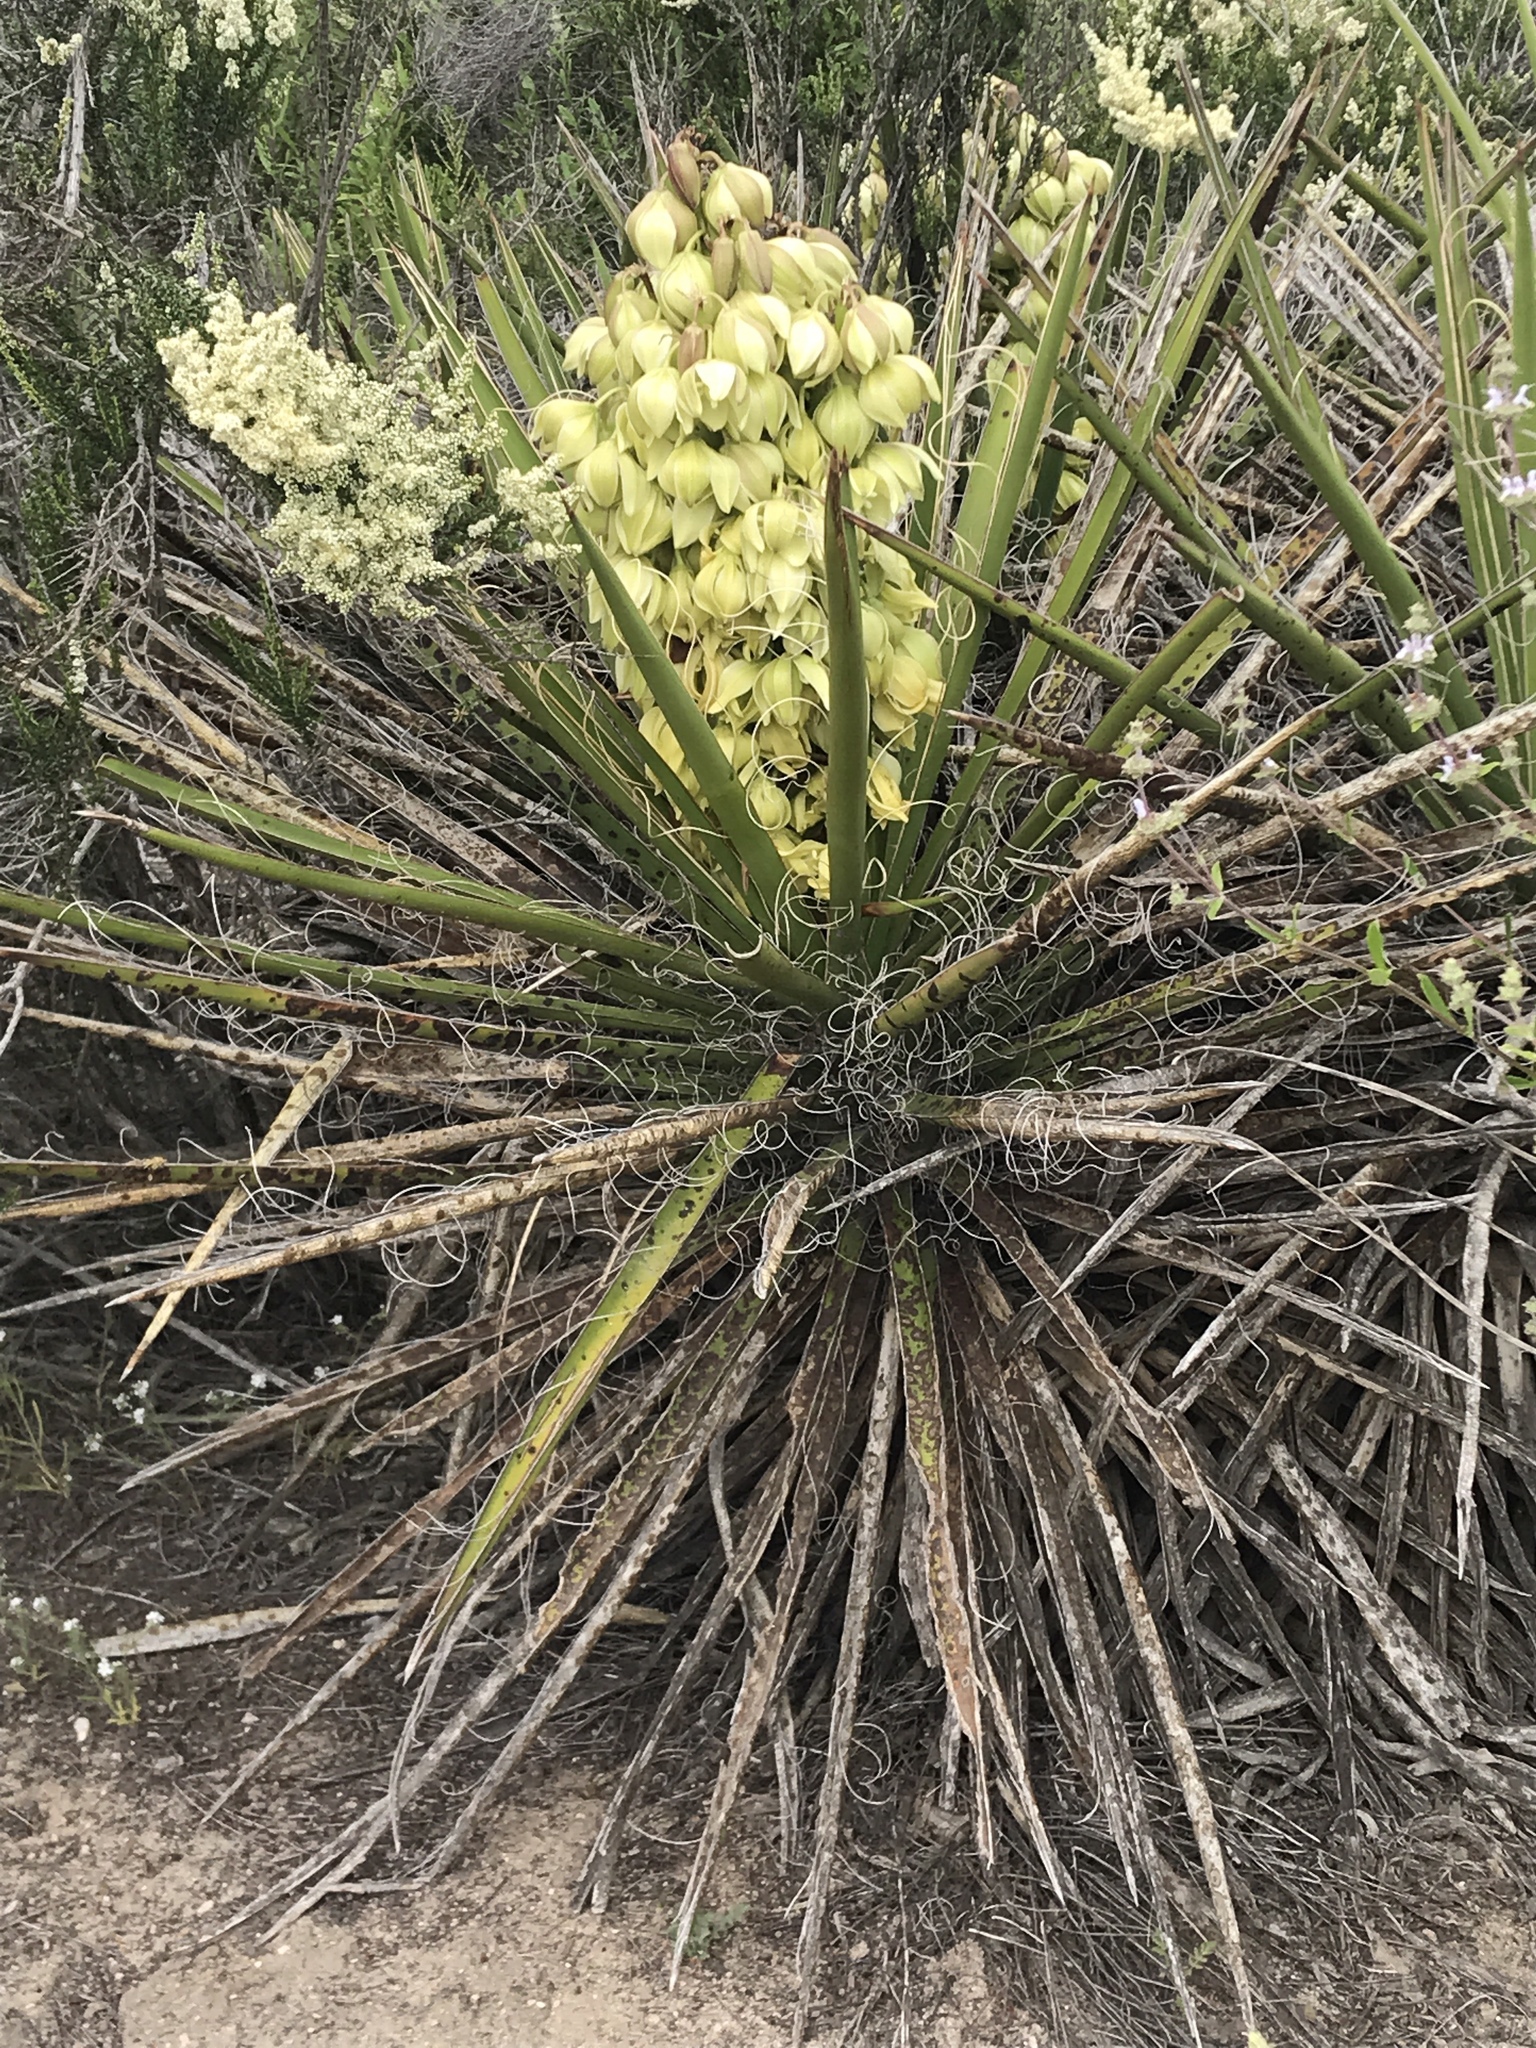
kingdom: Plantae
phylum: Tracheophyta
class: Liliopsida
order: Asparagales
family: Asparagaceae
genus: Yucca
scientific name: Yucca schidigera
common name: Mojave yucca
